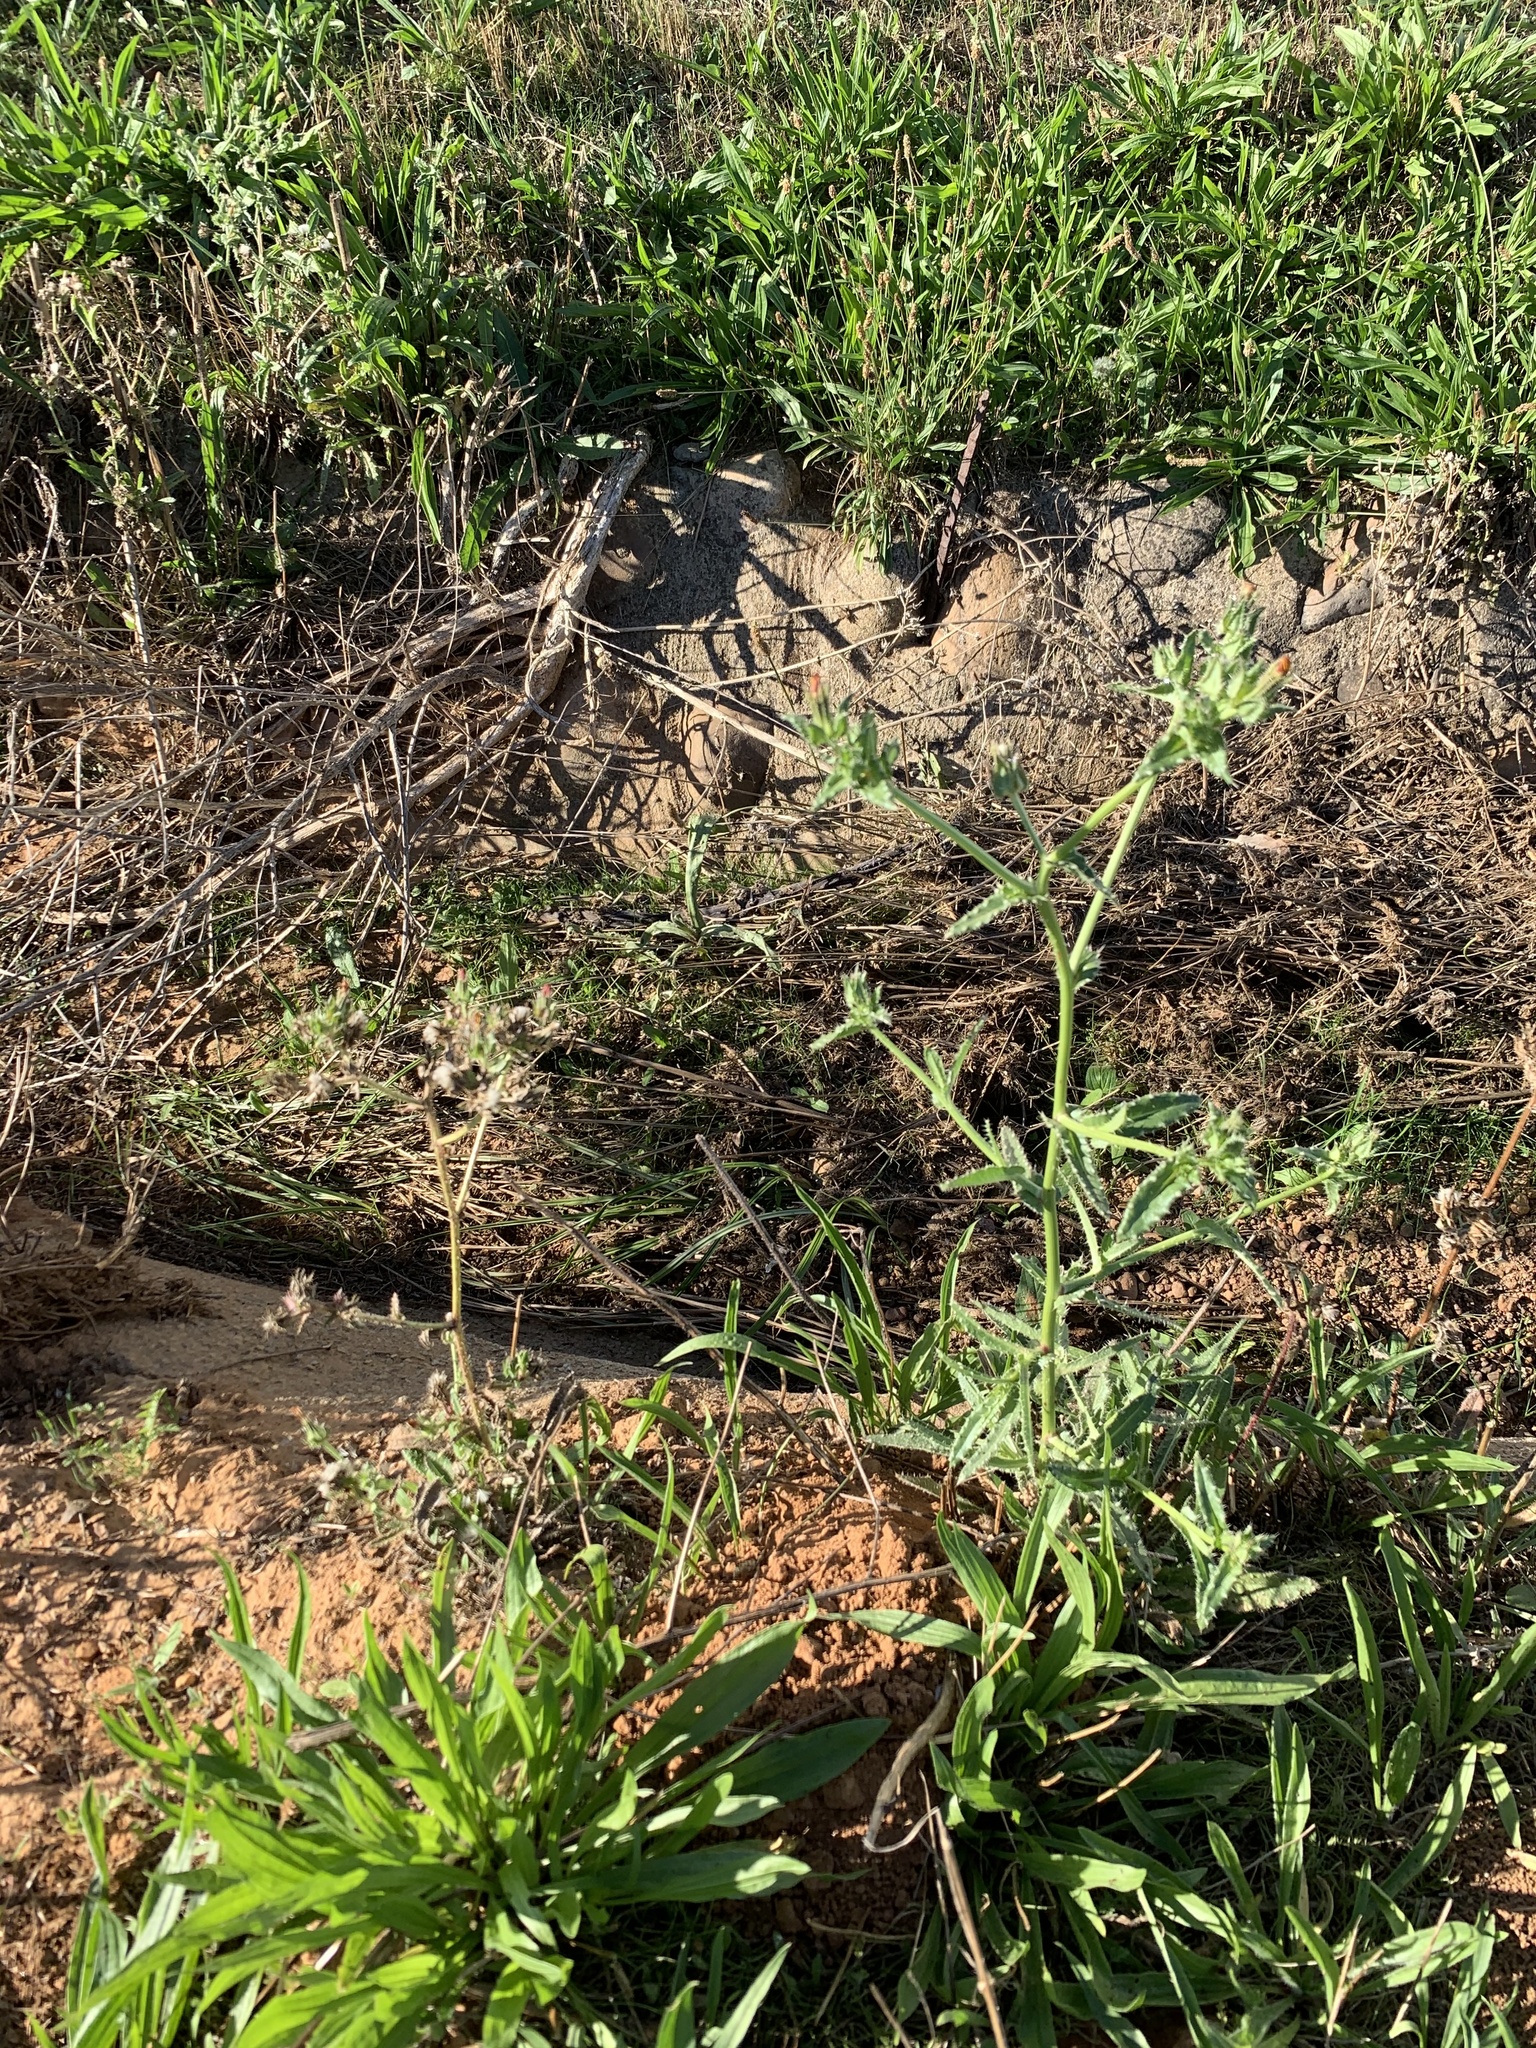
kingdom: Plantae
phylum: Tracheophyta
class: Magnoliopsida
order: Asterales
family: Asteraceae
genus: Helminthotheca
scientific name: Helminthotheca echioides
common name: Ox-tongue
